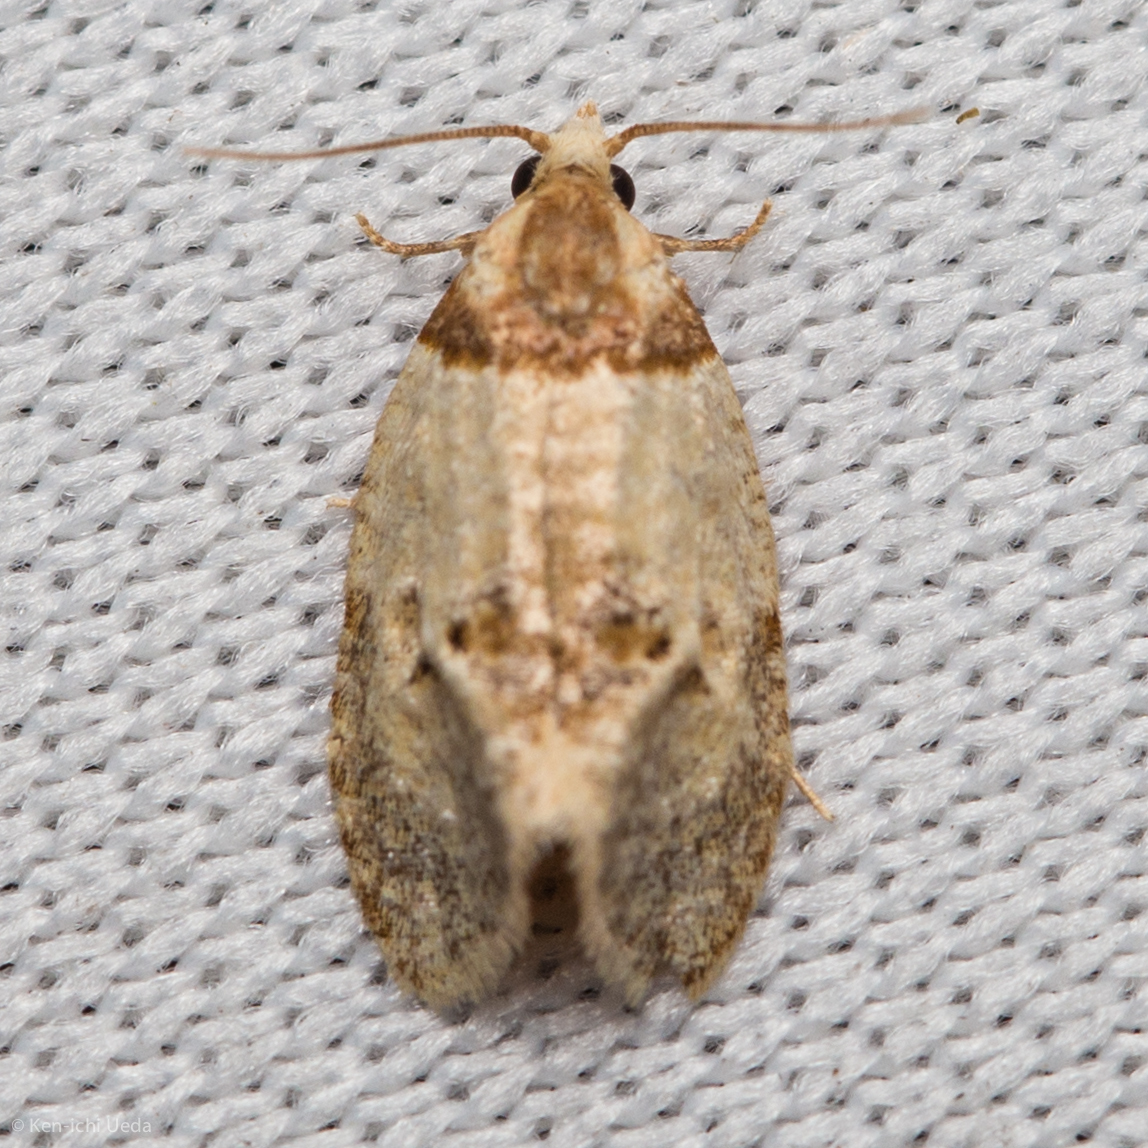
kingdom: Animalia
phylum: Arthropoda
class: Insecta
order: Lepidoptera
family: Tortricidae
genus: Henricus
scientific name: Henricus umbrabasana
